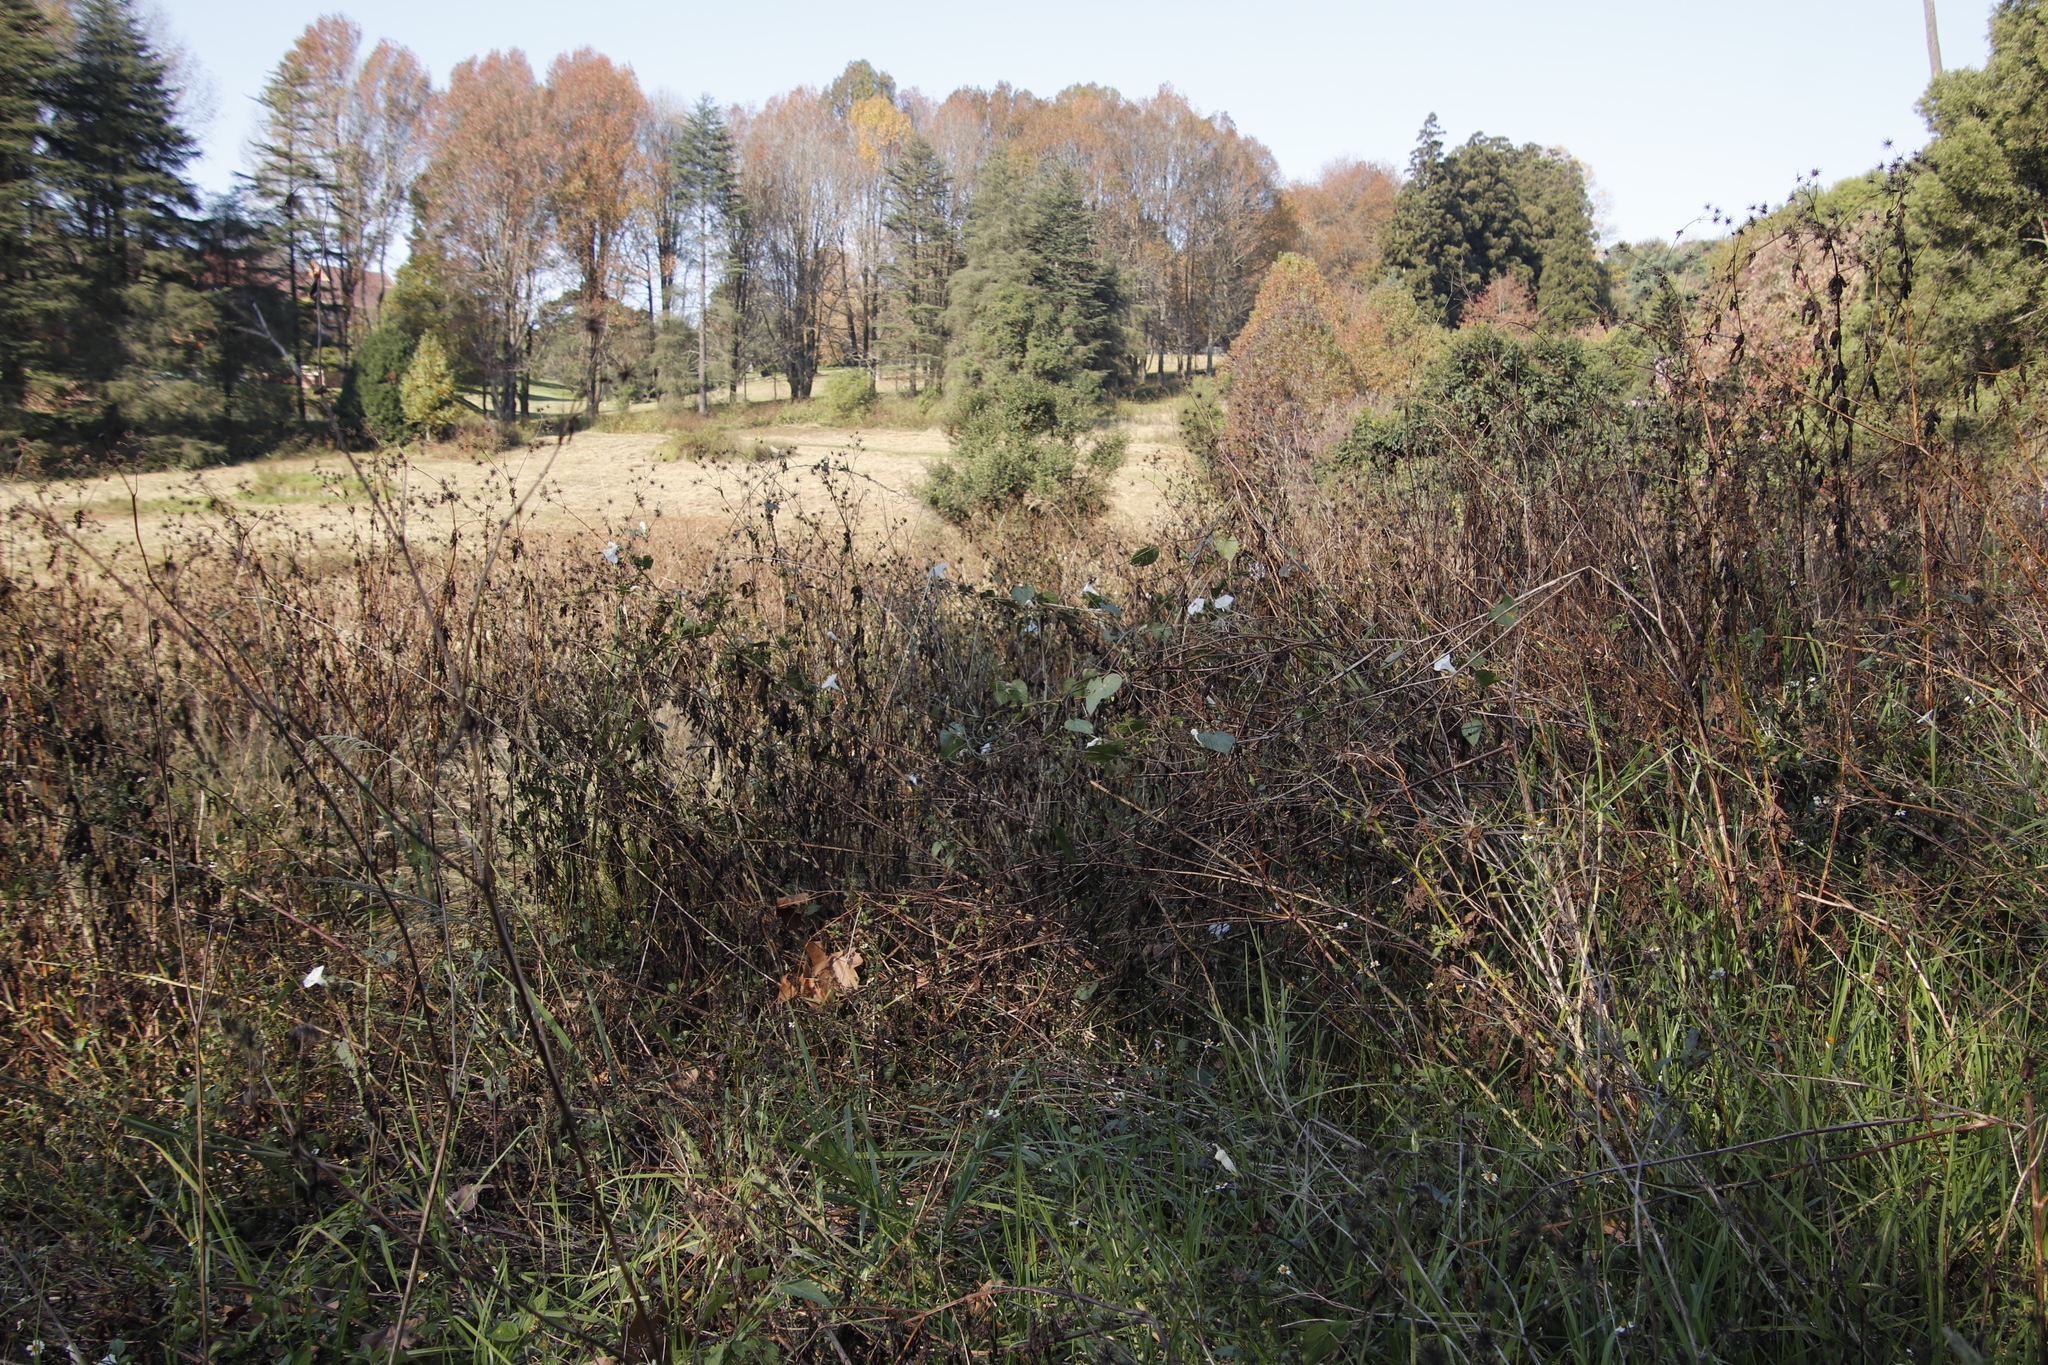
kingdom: Plantae
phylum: Tracheophyta
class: Magnoliopsida
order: Asterales
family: Asteraceae
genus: Bidens
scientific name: Bidens pilosa
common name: Black-jack
